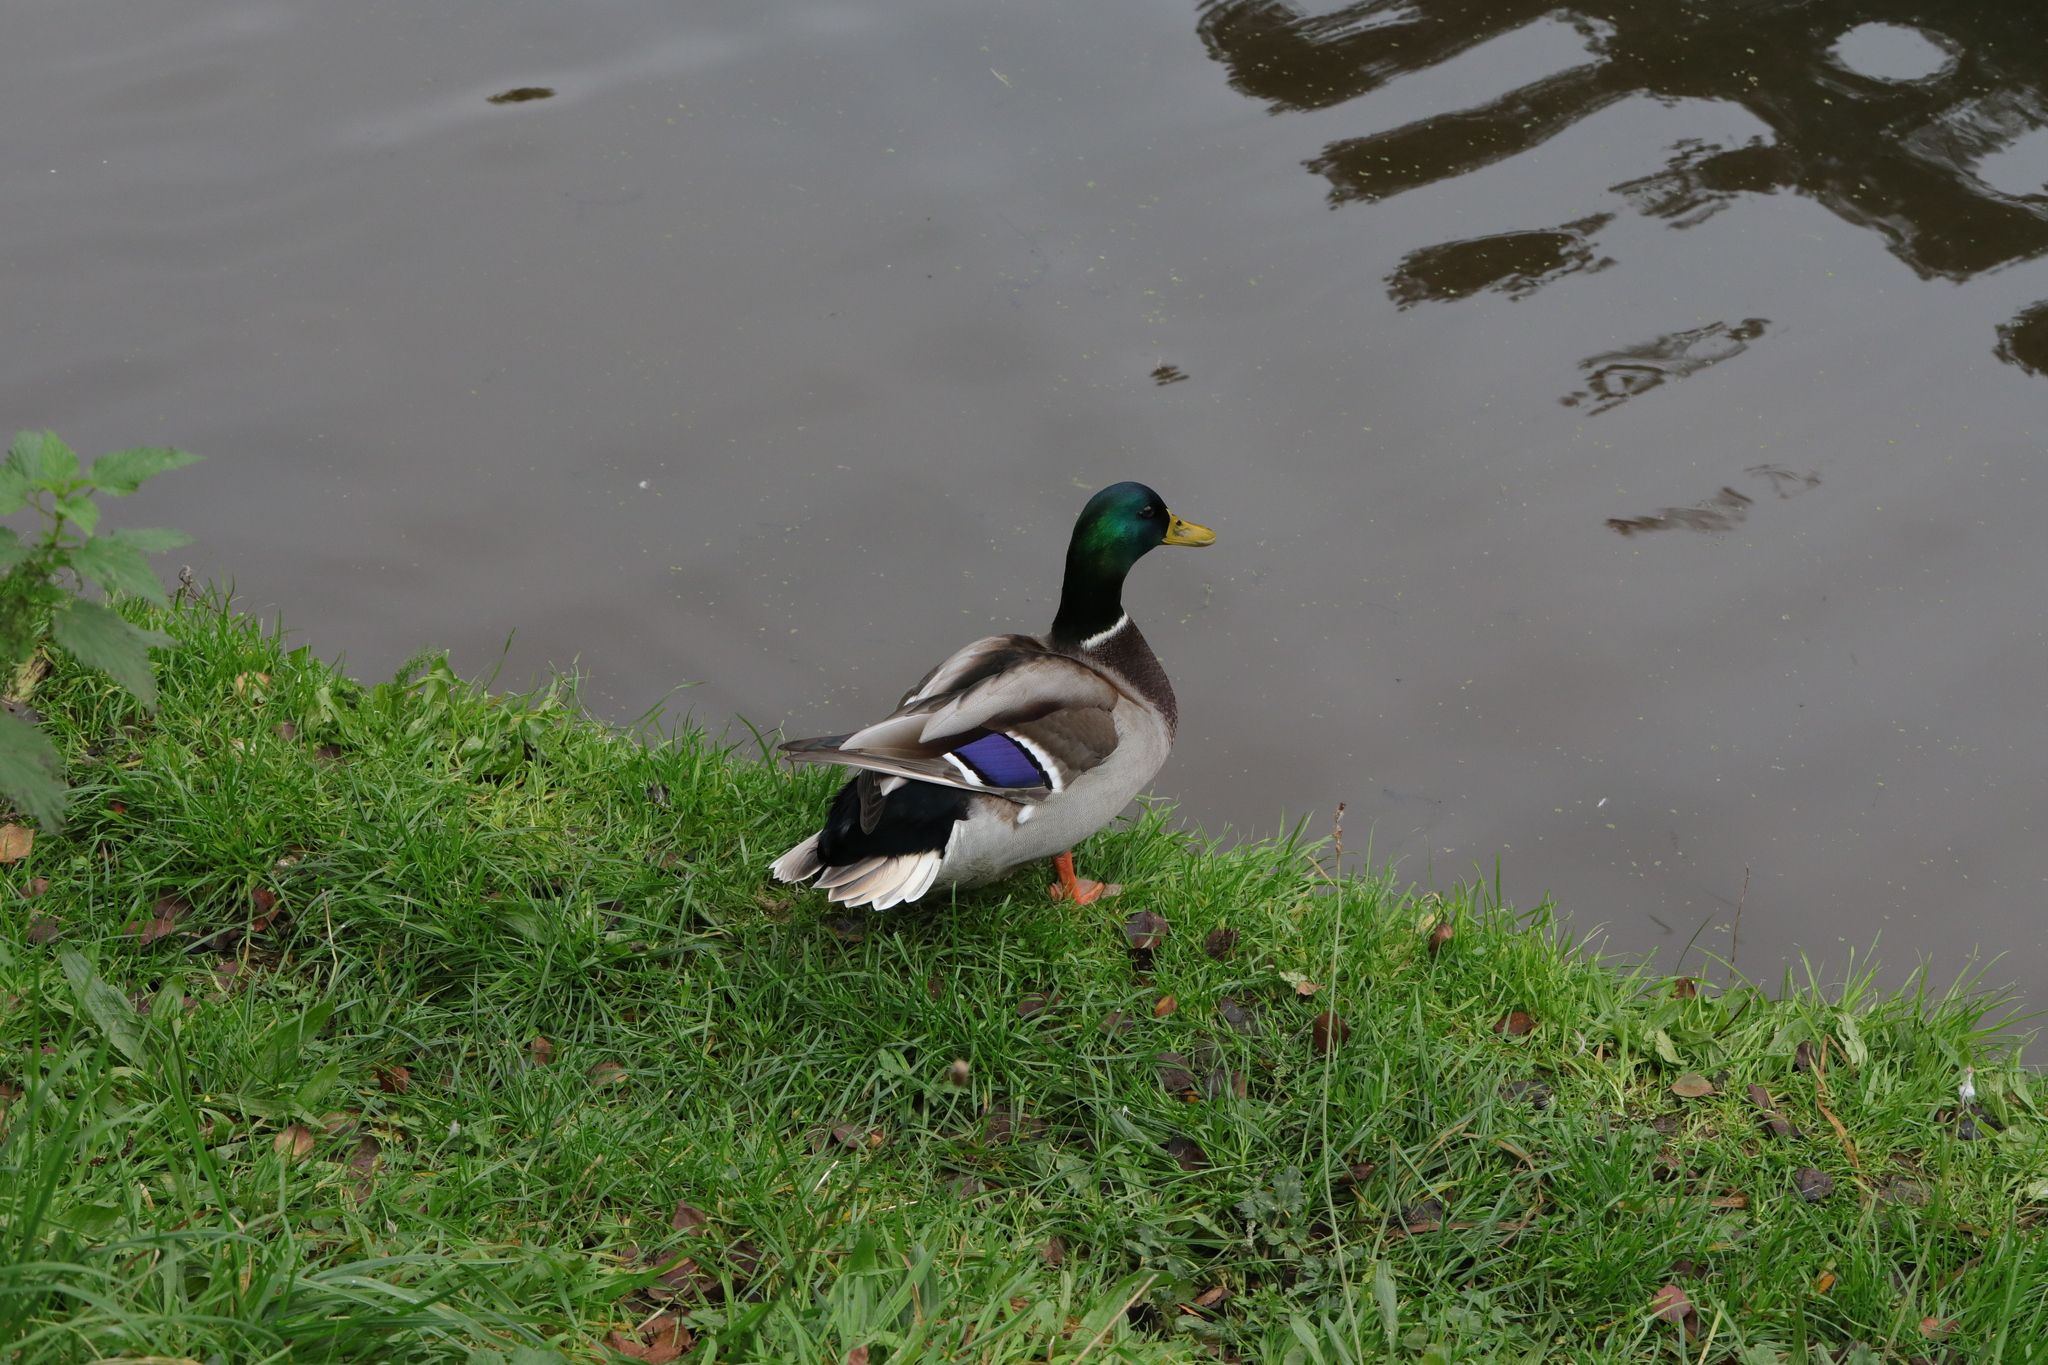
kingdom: Animalia
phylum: Chordata
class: Aves
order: Anseriformes
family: Anatidae
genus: Anas
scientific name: Anas platyrhynchos
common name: Mallard
